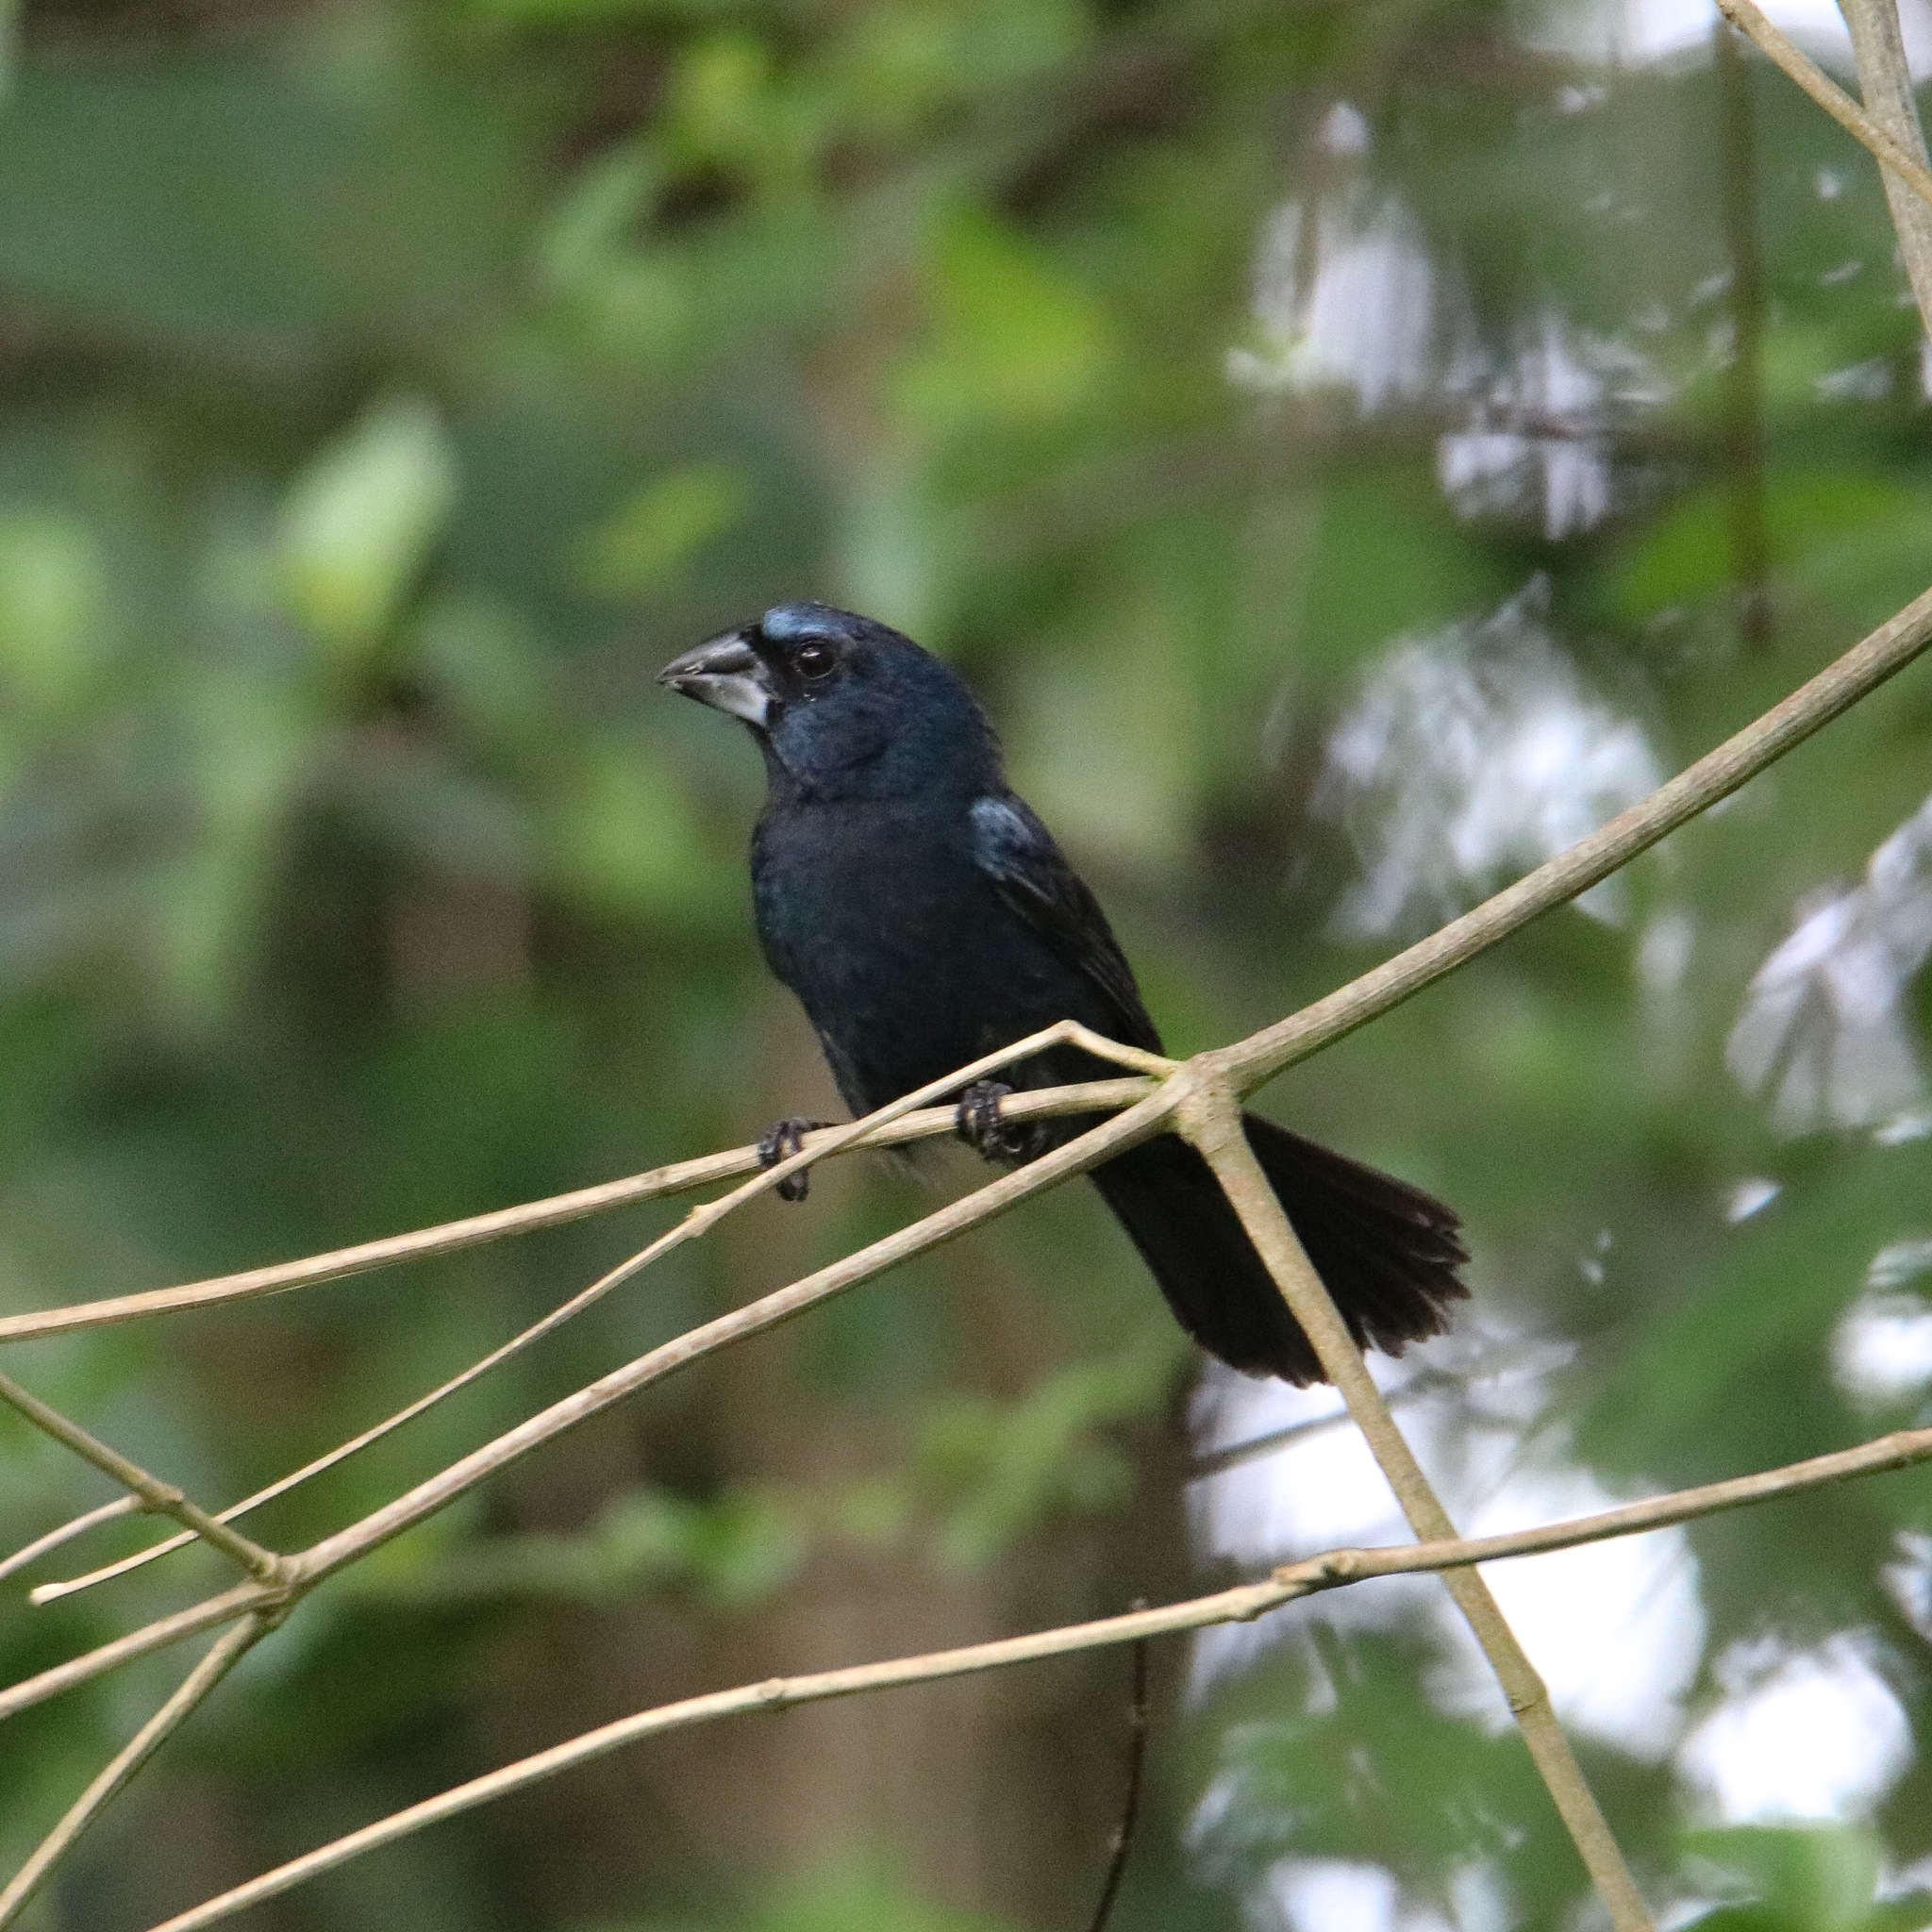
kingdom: Animalia
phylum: Chordata
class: Aves
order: Passeriformes
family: Cardinalidae
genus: Cyanocompsa
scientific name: Cyanocompsa cyanoides
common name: Blue-black grosbeak
